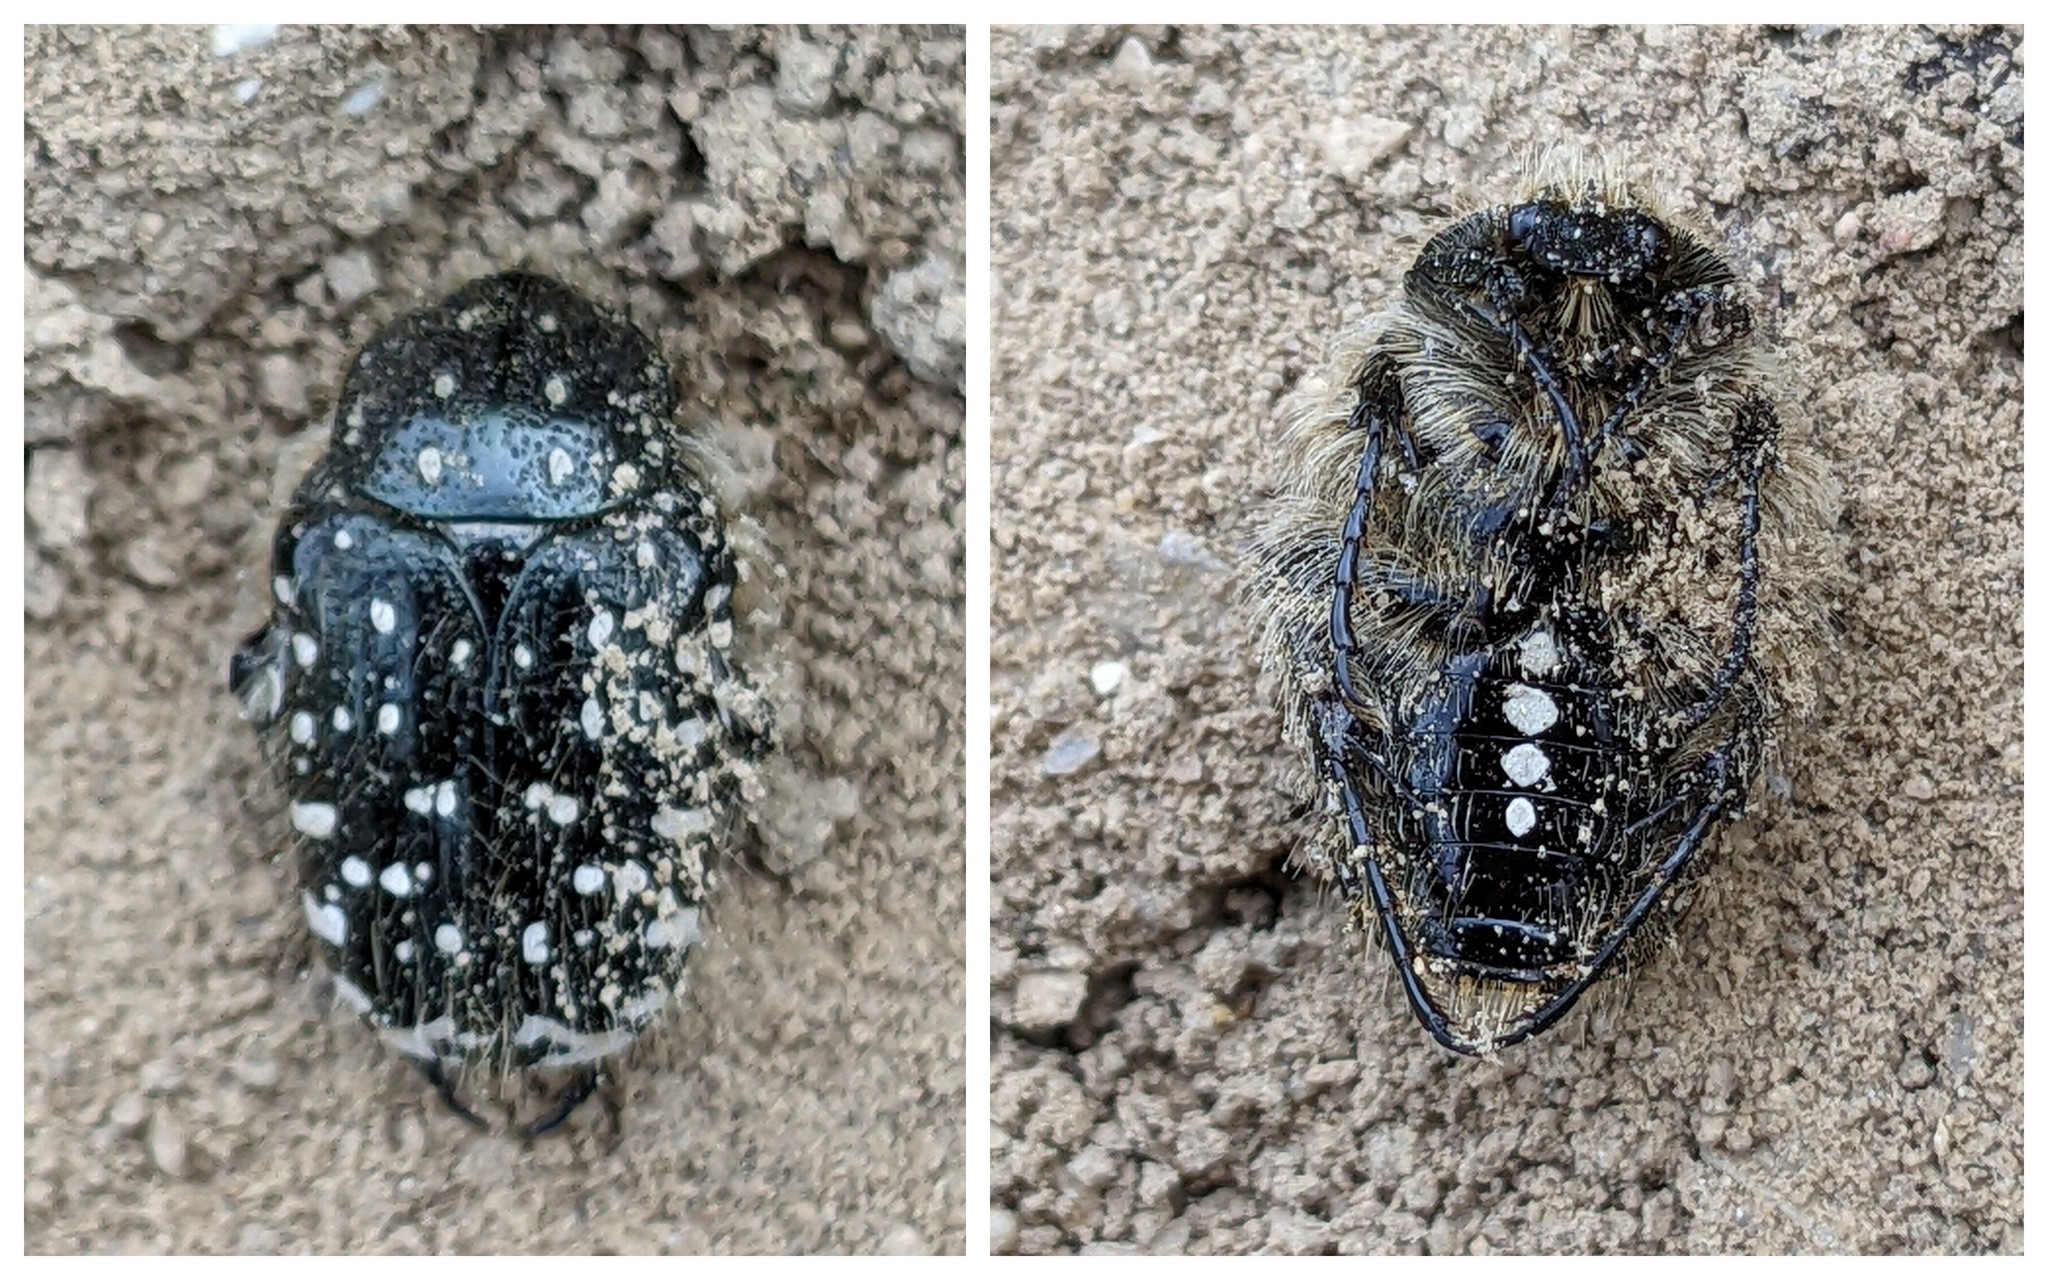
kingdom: Animalia
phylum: Arthropoda
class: Insecta
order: Coleoptera
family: Scarabaeidae
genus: Oxythyrea
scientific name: Oxythyrea funesta
